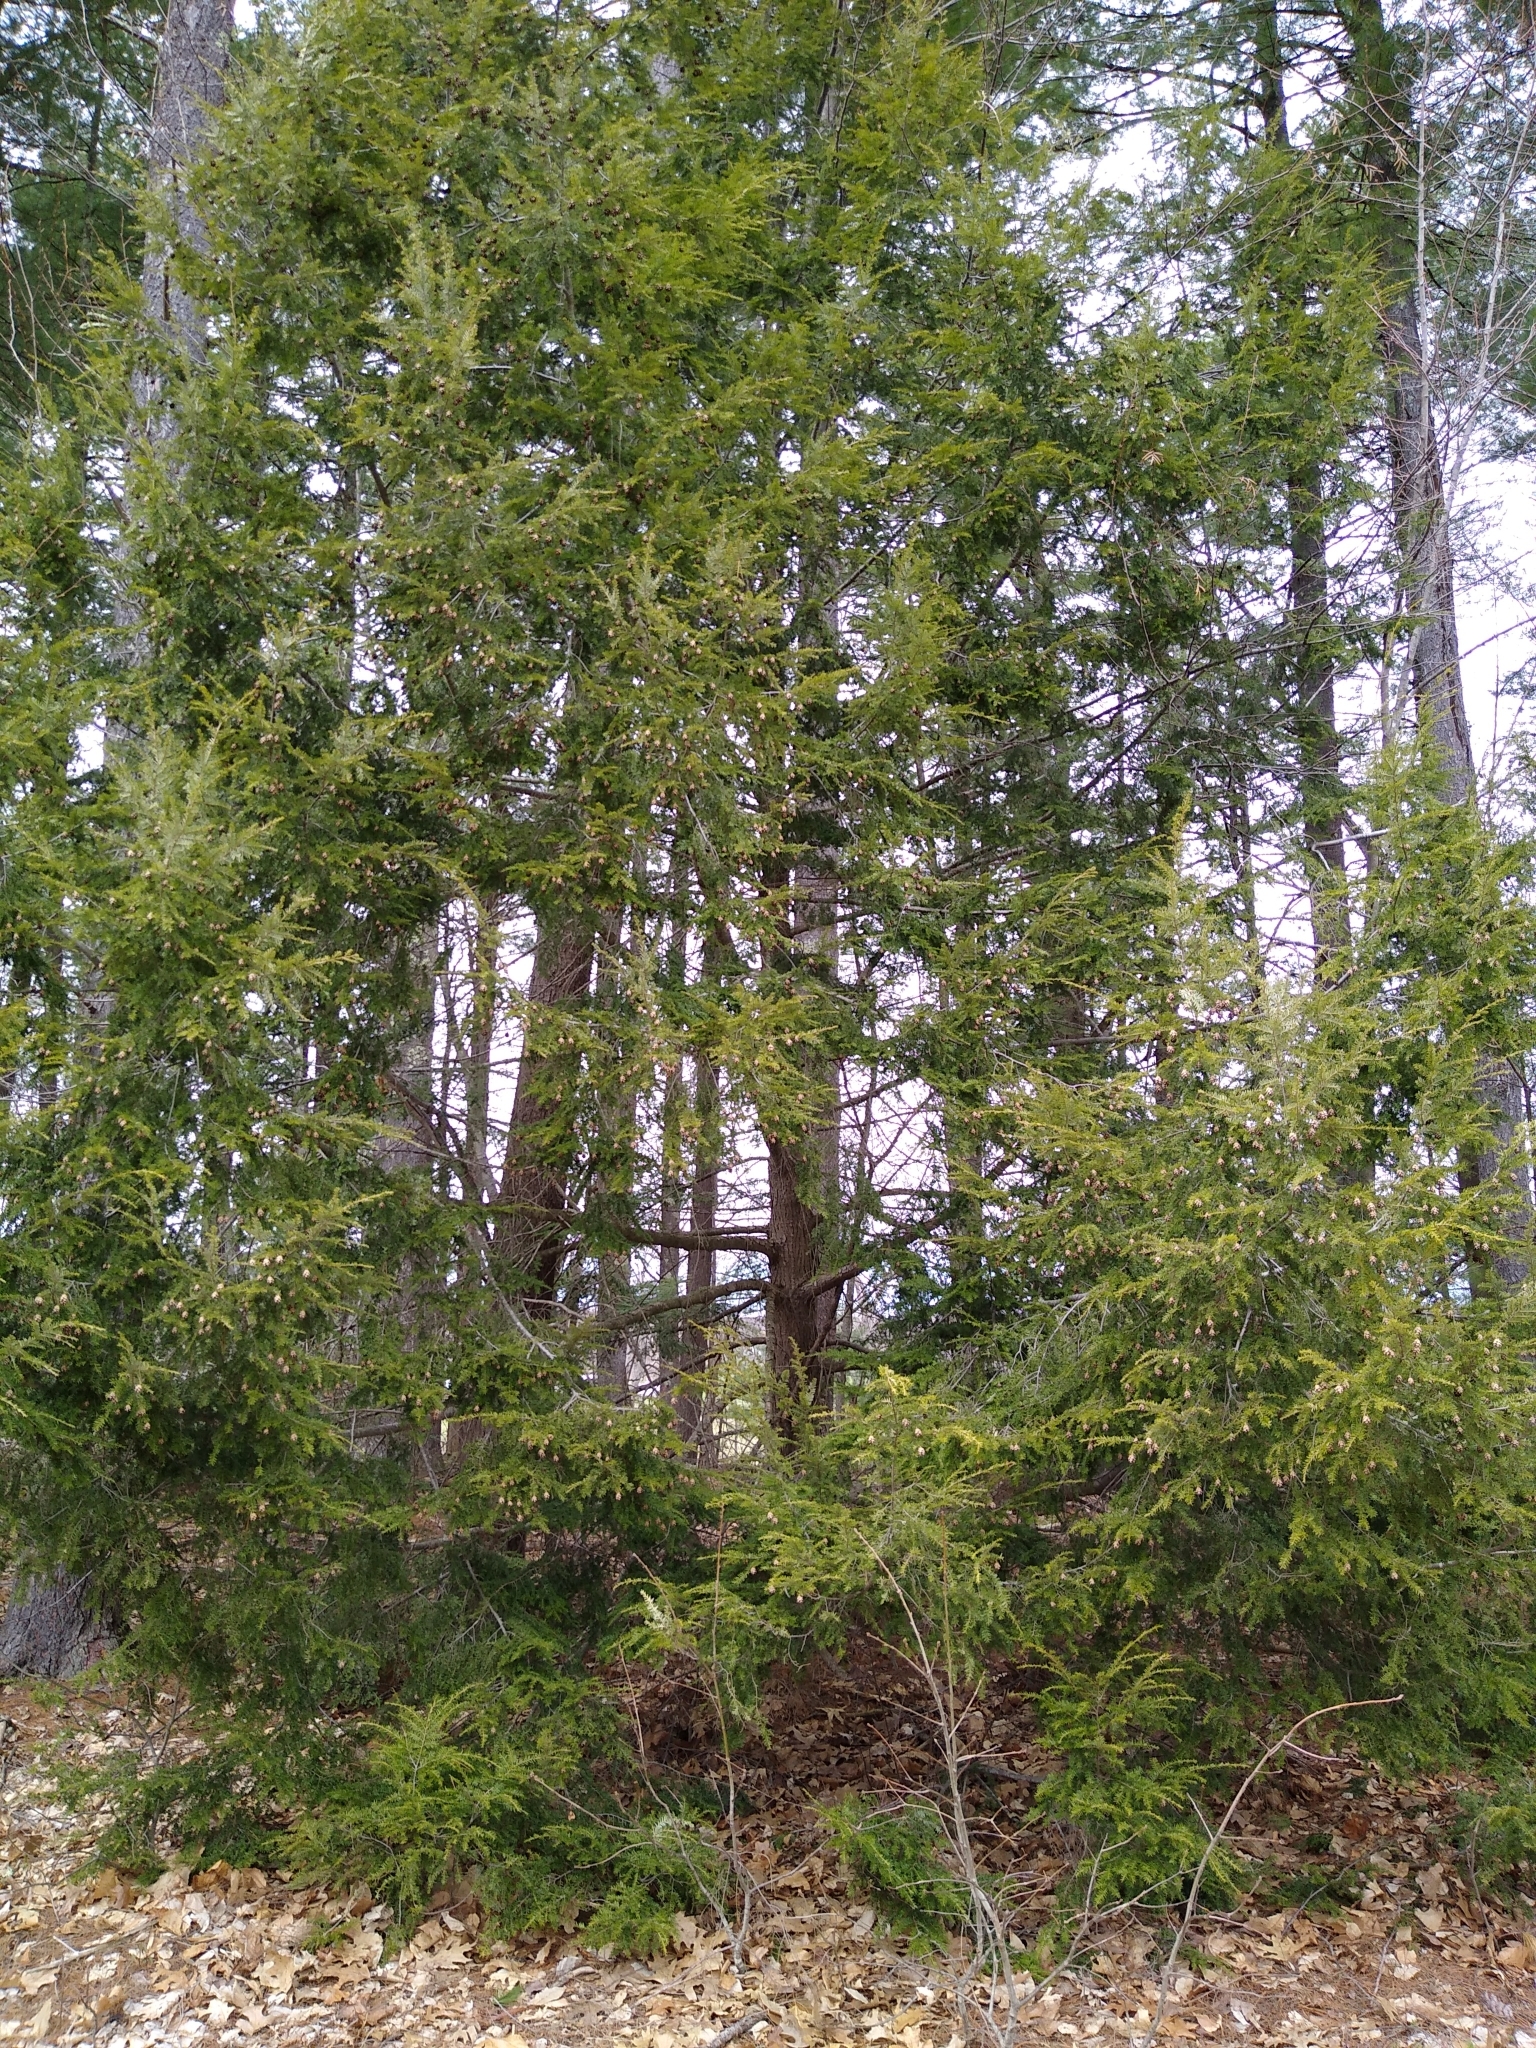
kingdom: Plantae
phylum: Tracheophyta
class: Pinopsida
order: Pinales
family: Pinaceae
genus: Tsuga
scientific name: Tsuga canadensis
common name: Eastern hemlock
